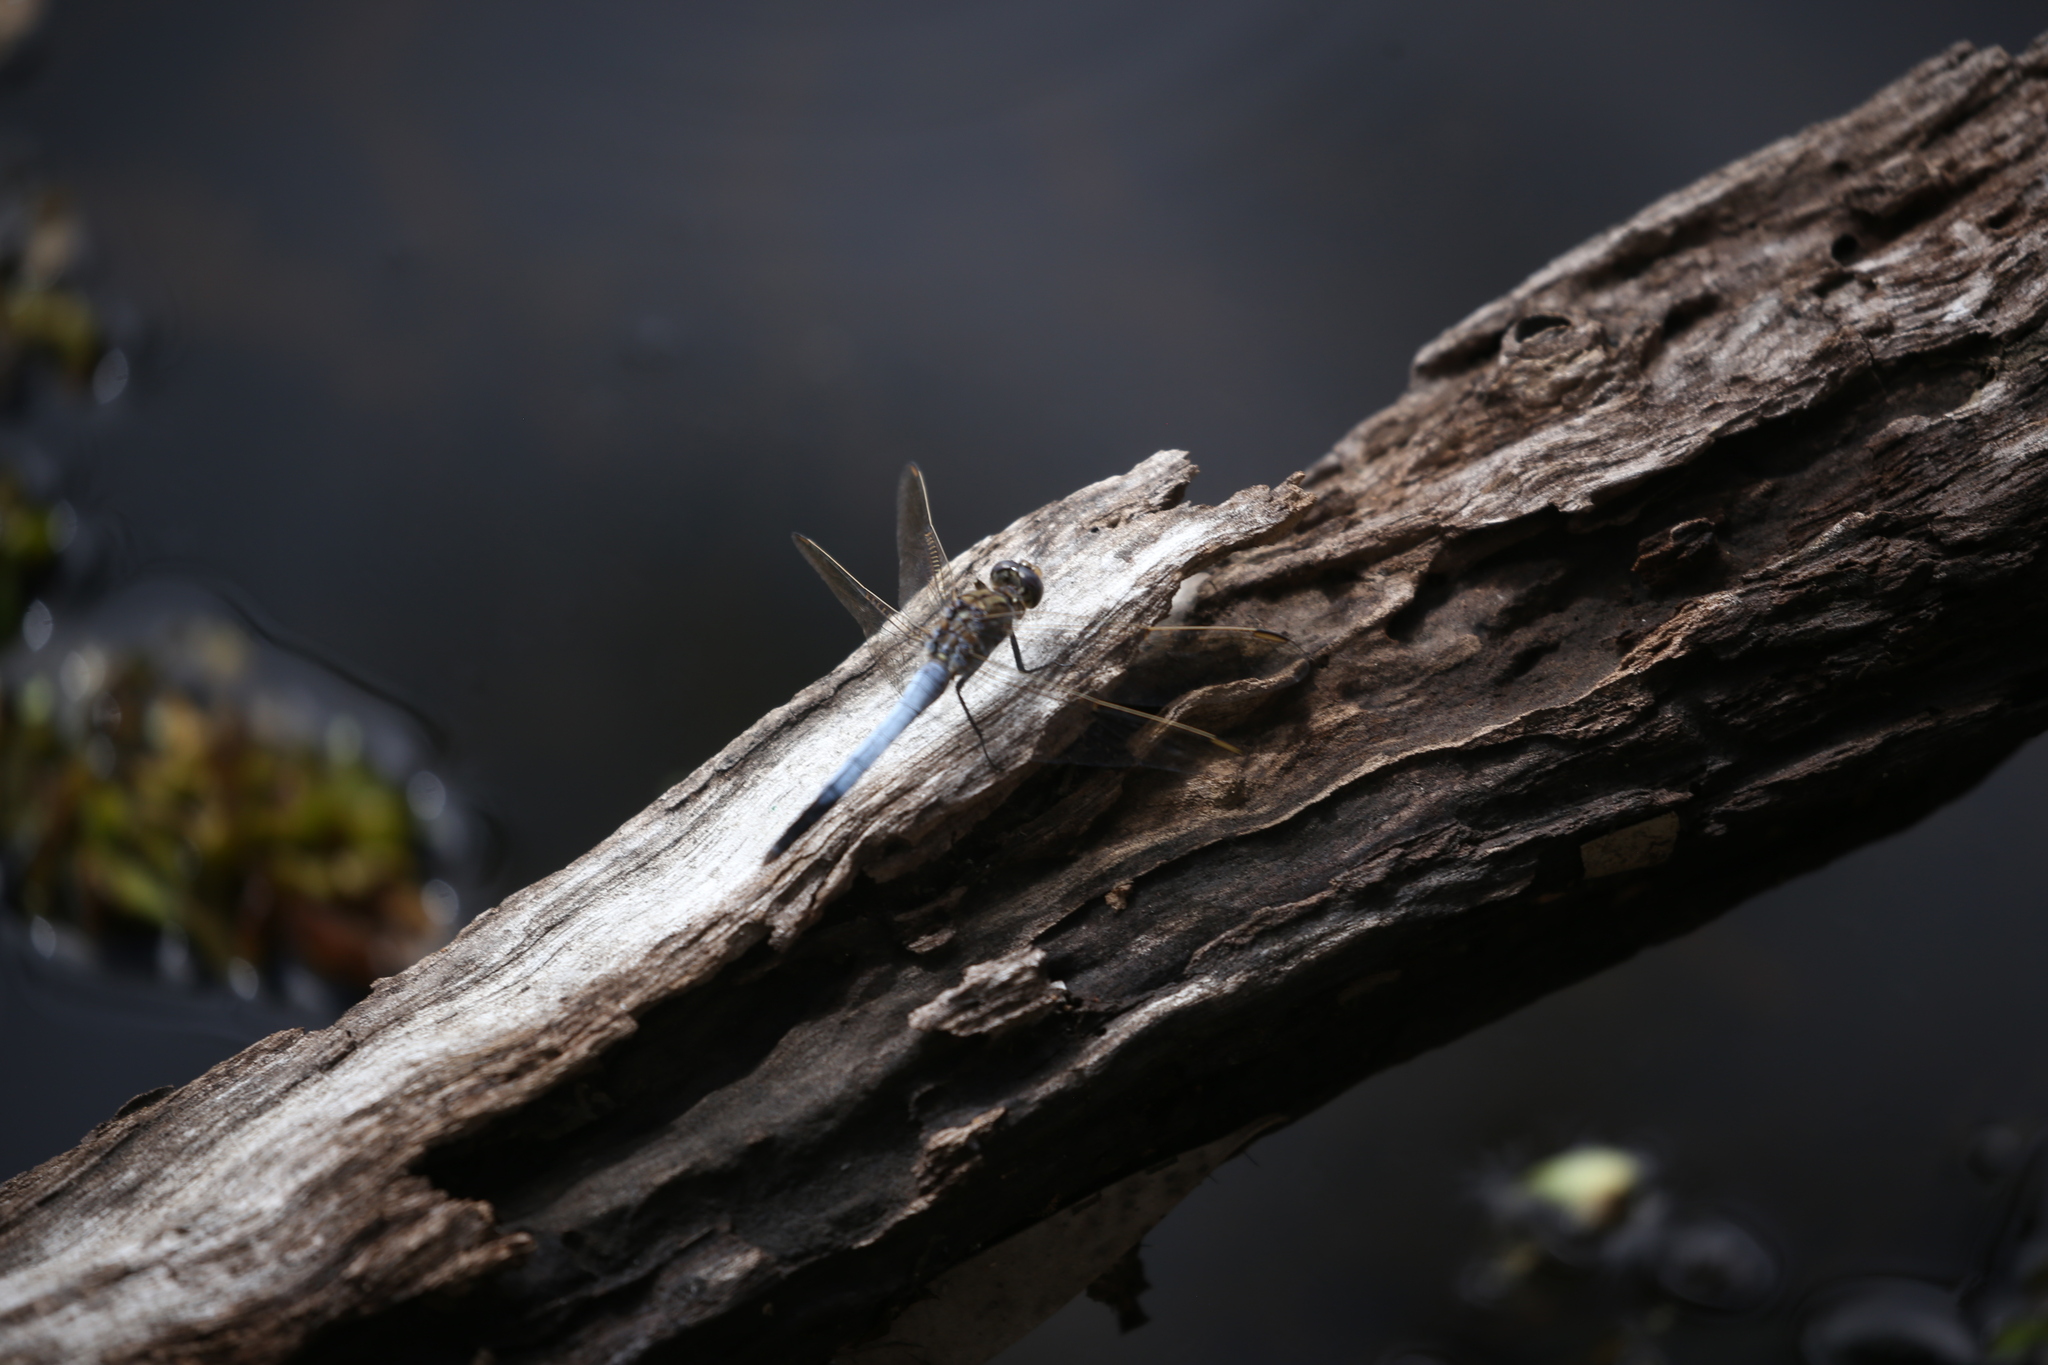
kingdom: Animalia
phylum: Arthropoda
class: Insecta
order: Odonata
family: Libellulidae
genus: Orthetrum
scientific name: Orthetrum caledonicum
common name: Blue skimmer
